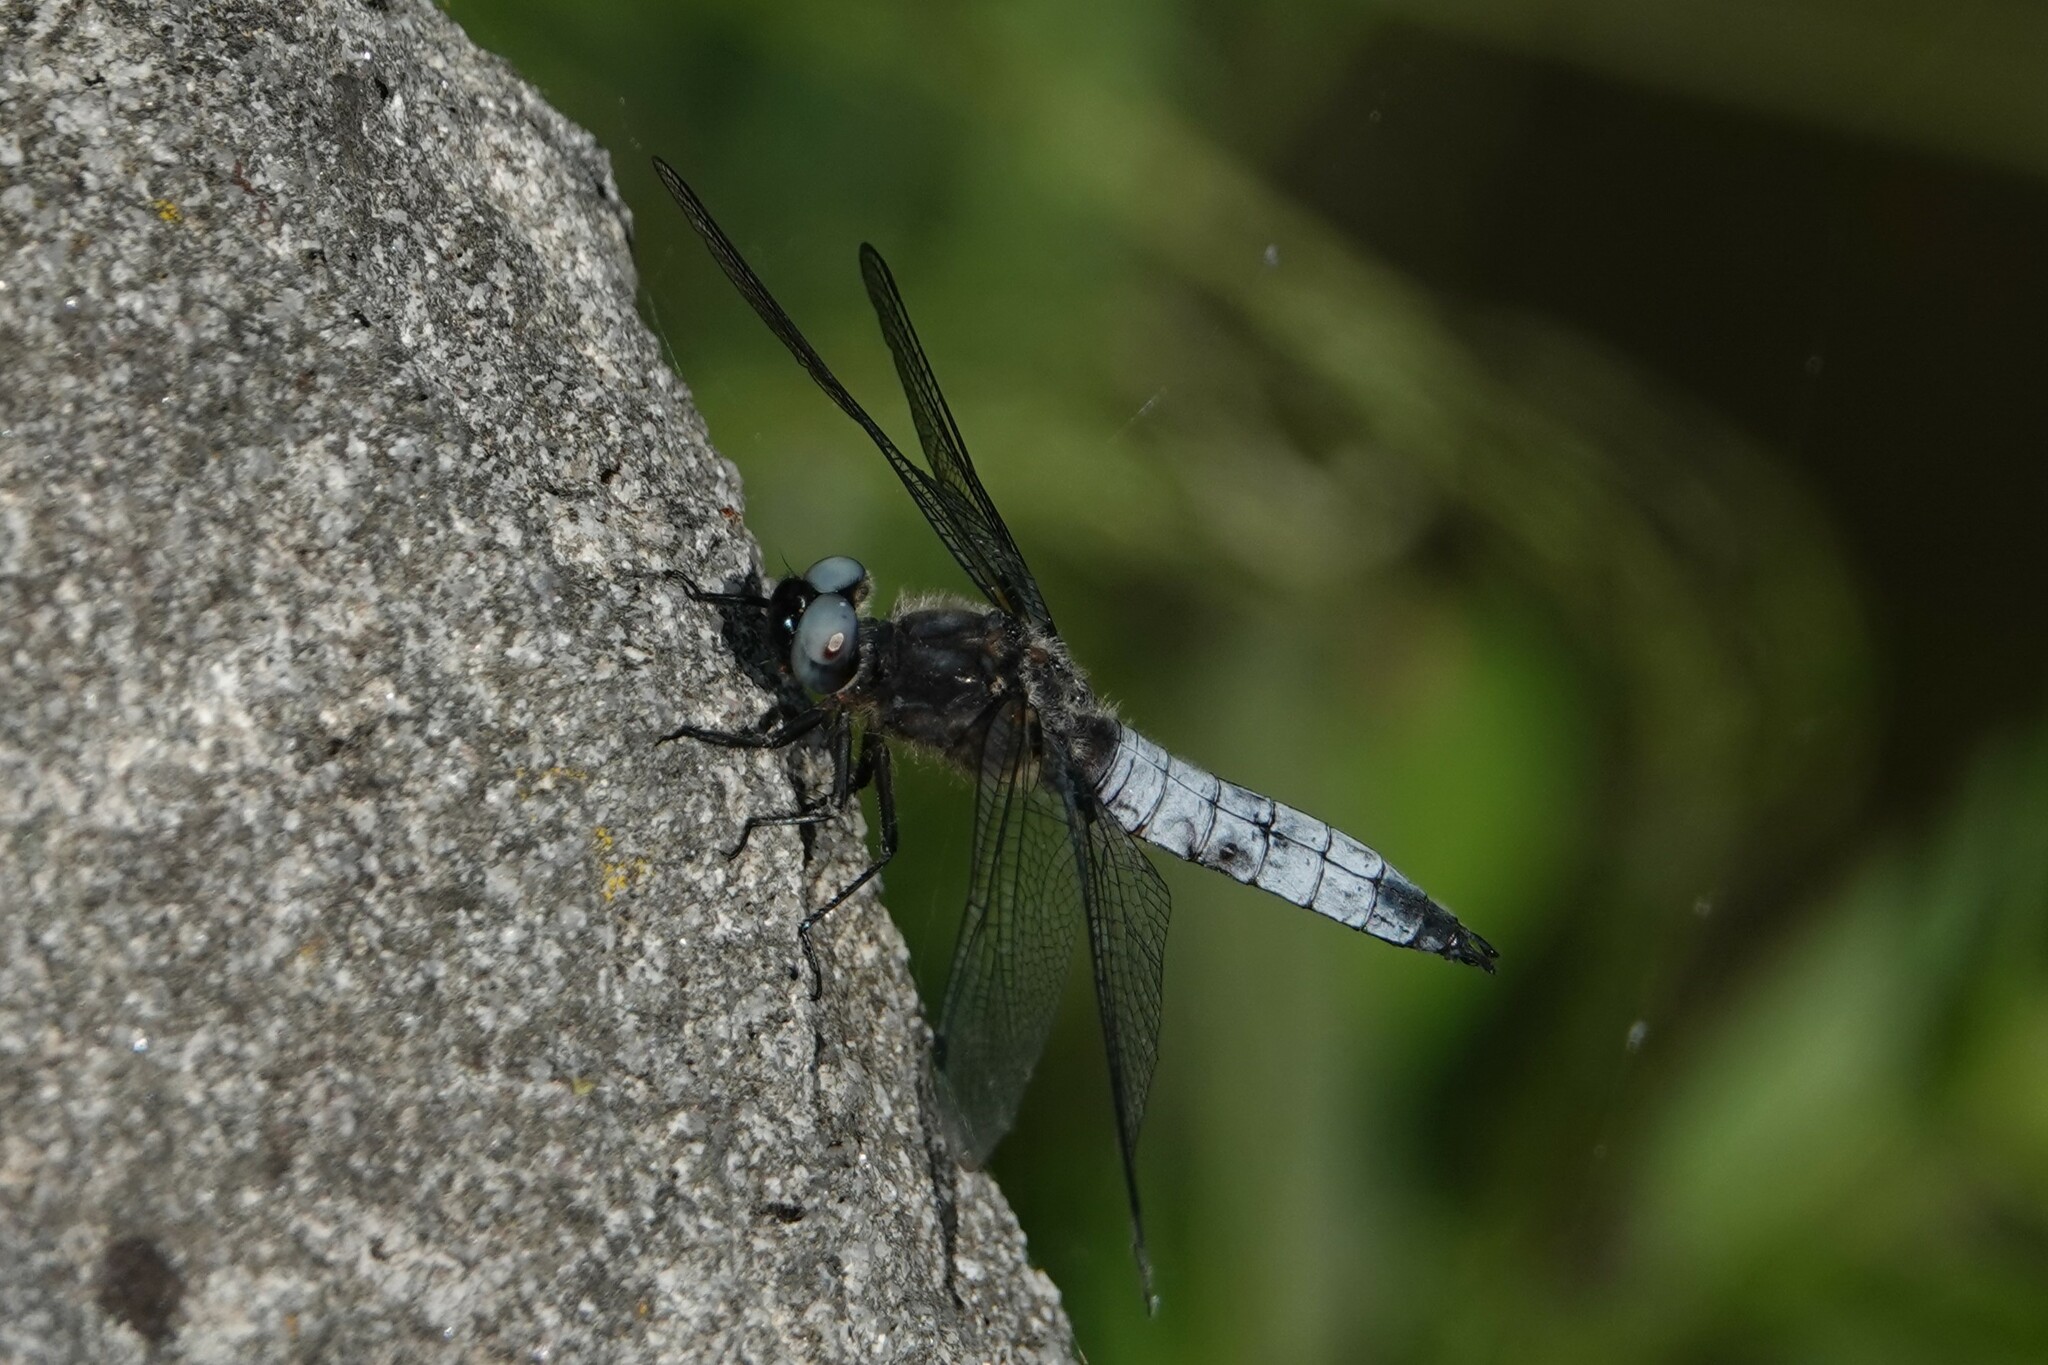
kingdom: Animalia
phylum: Arthropoda
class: Insecta
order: Odonata
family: Libellulidae
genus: Libellula
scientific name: Libellula fulva
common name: Blue chaser
